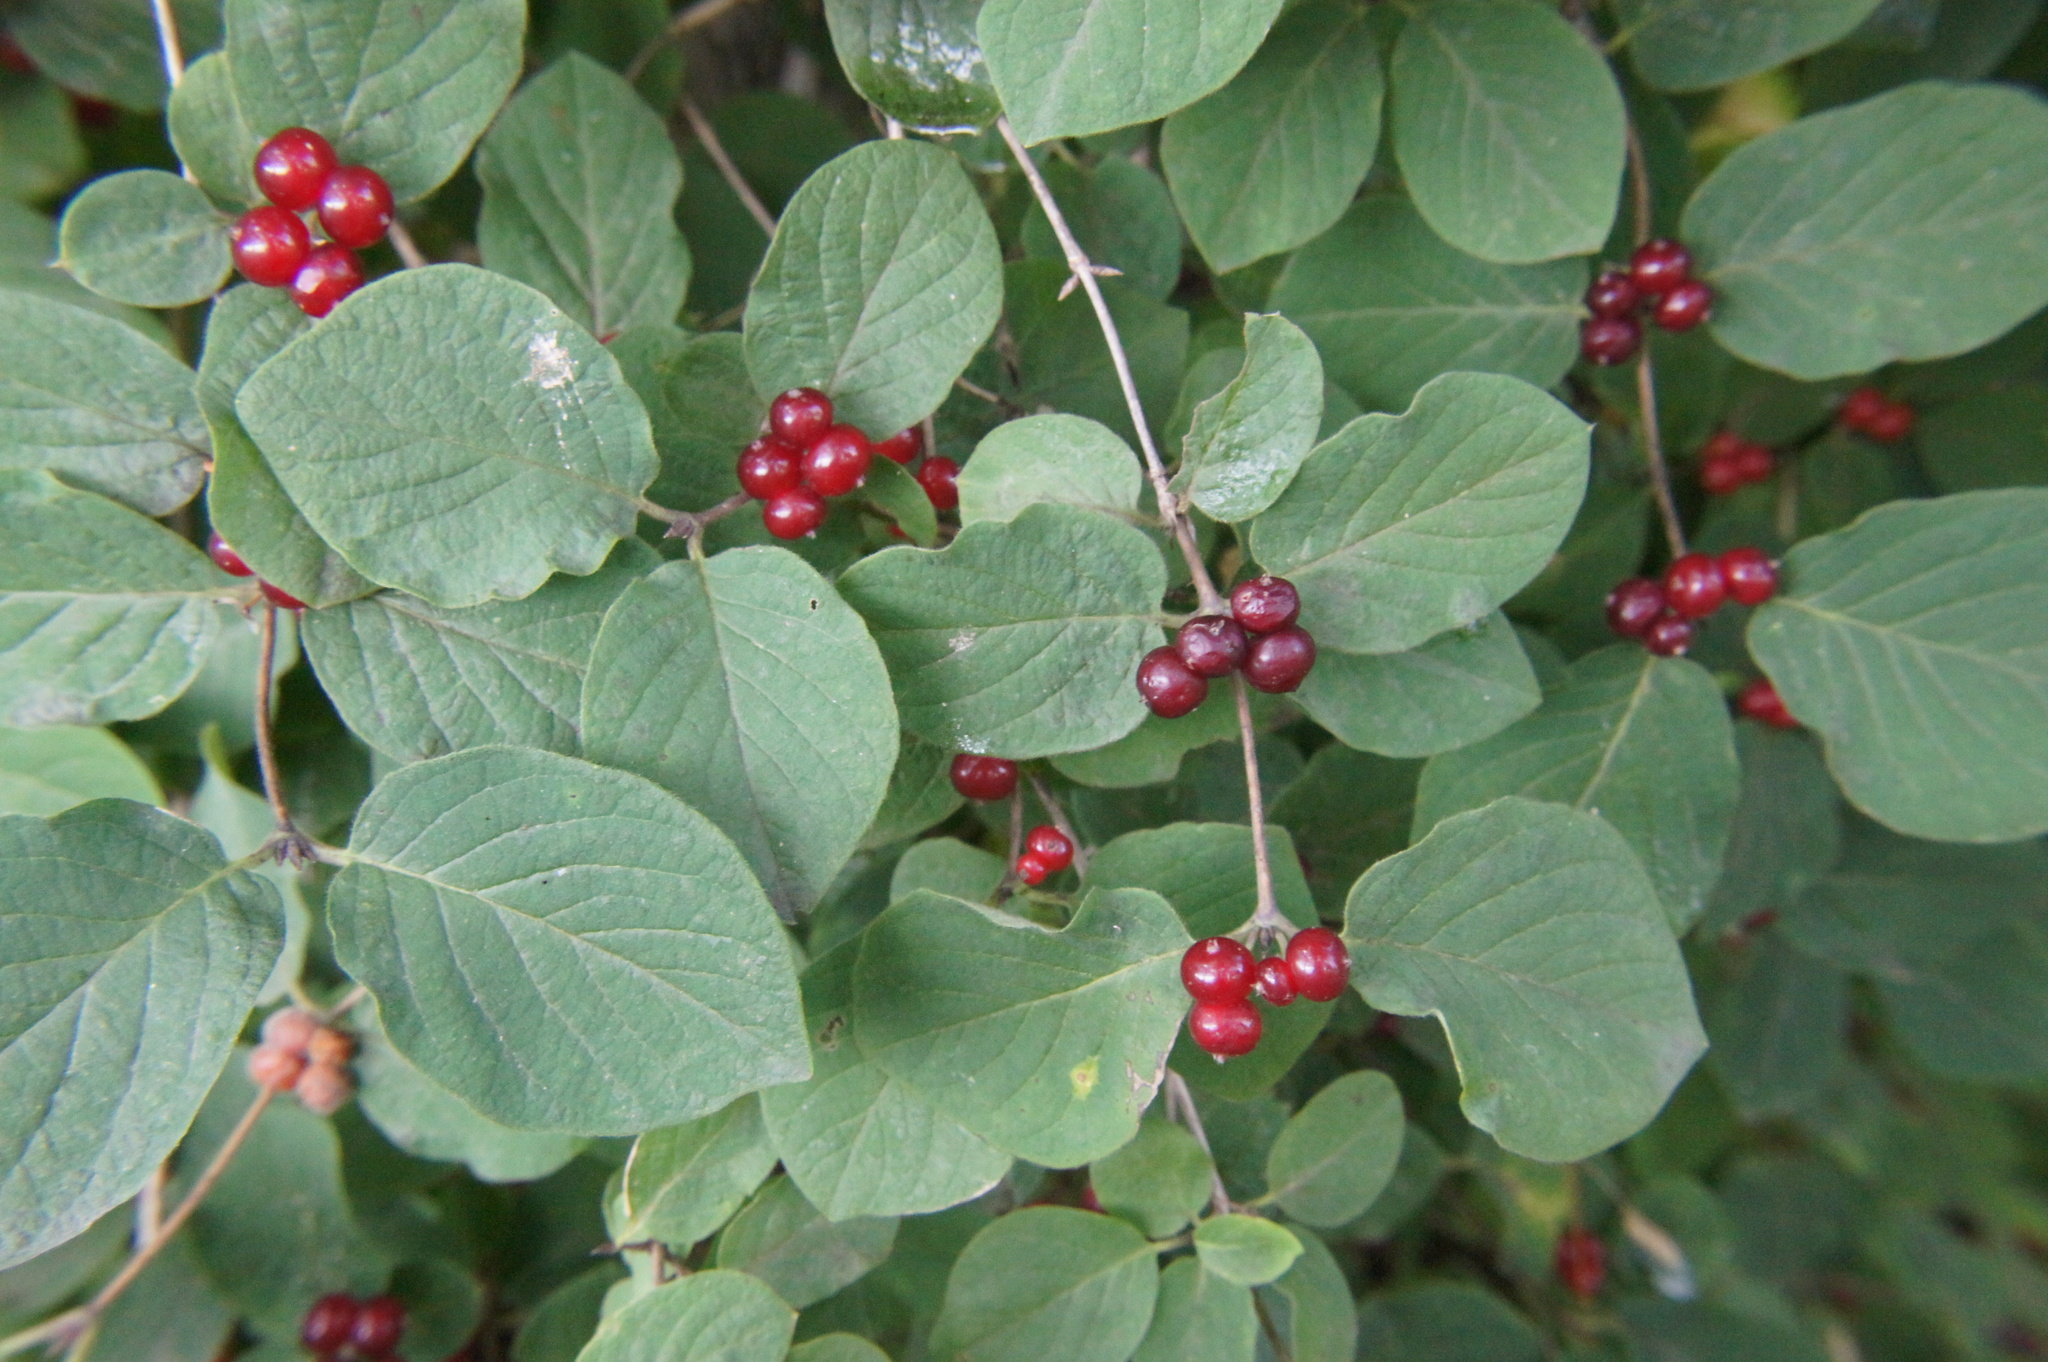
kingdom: Plantae
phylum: Tracheophyta
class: Magnoliopsida
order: Dipsacales
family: Caprifoliaceae
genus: Lonicera
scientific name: Lonicera xylosteum
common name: Fly honeysuckle
